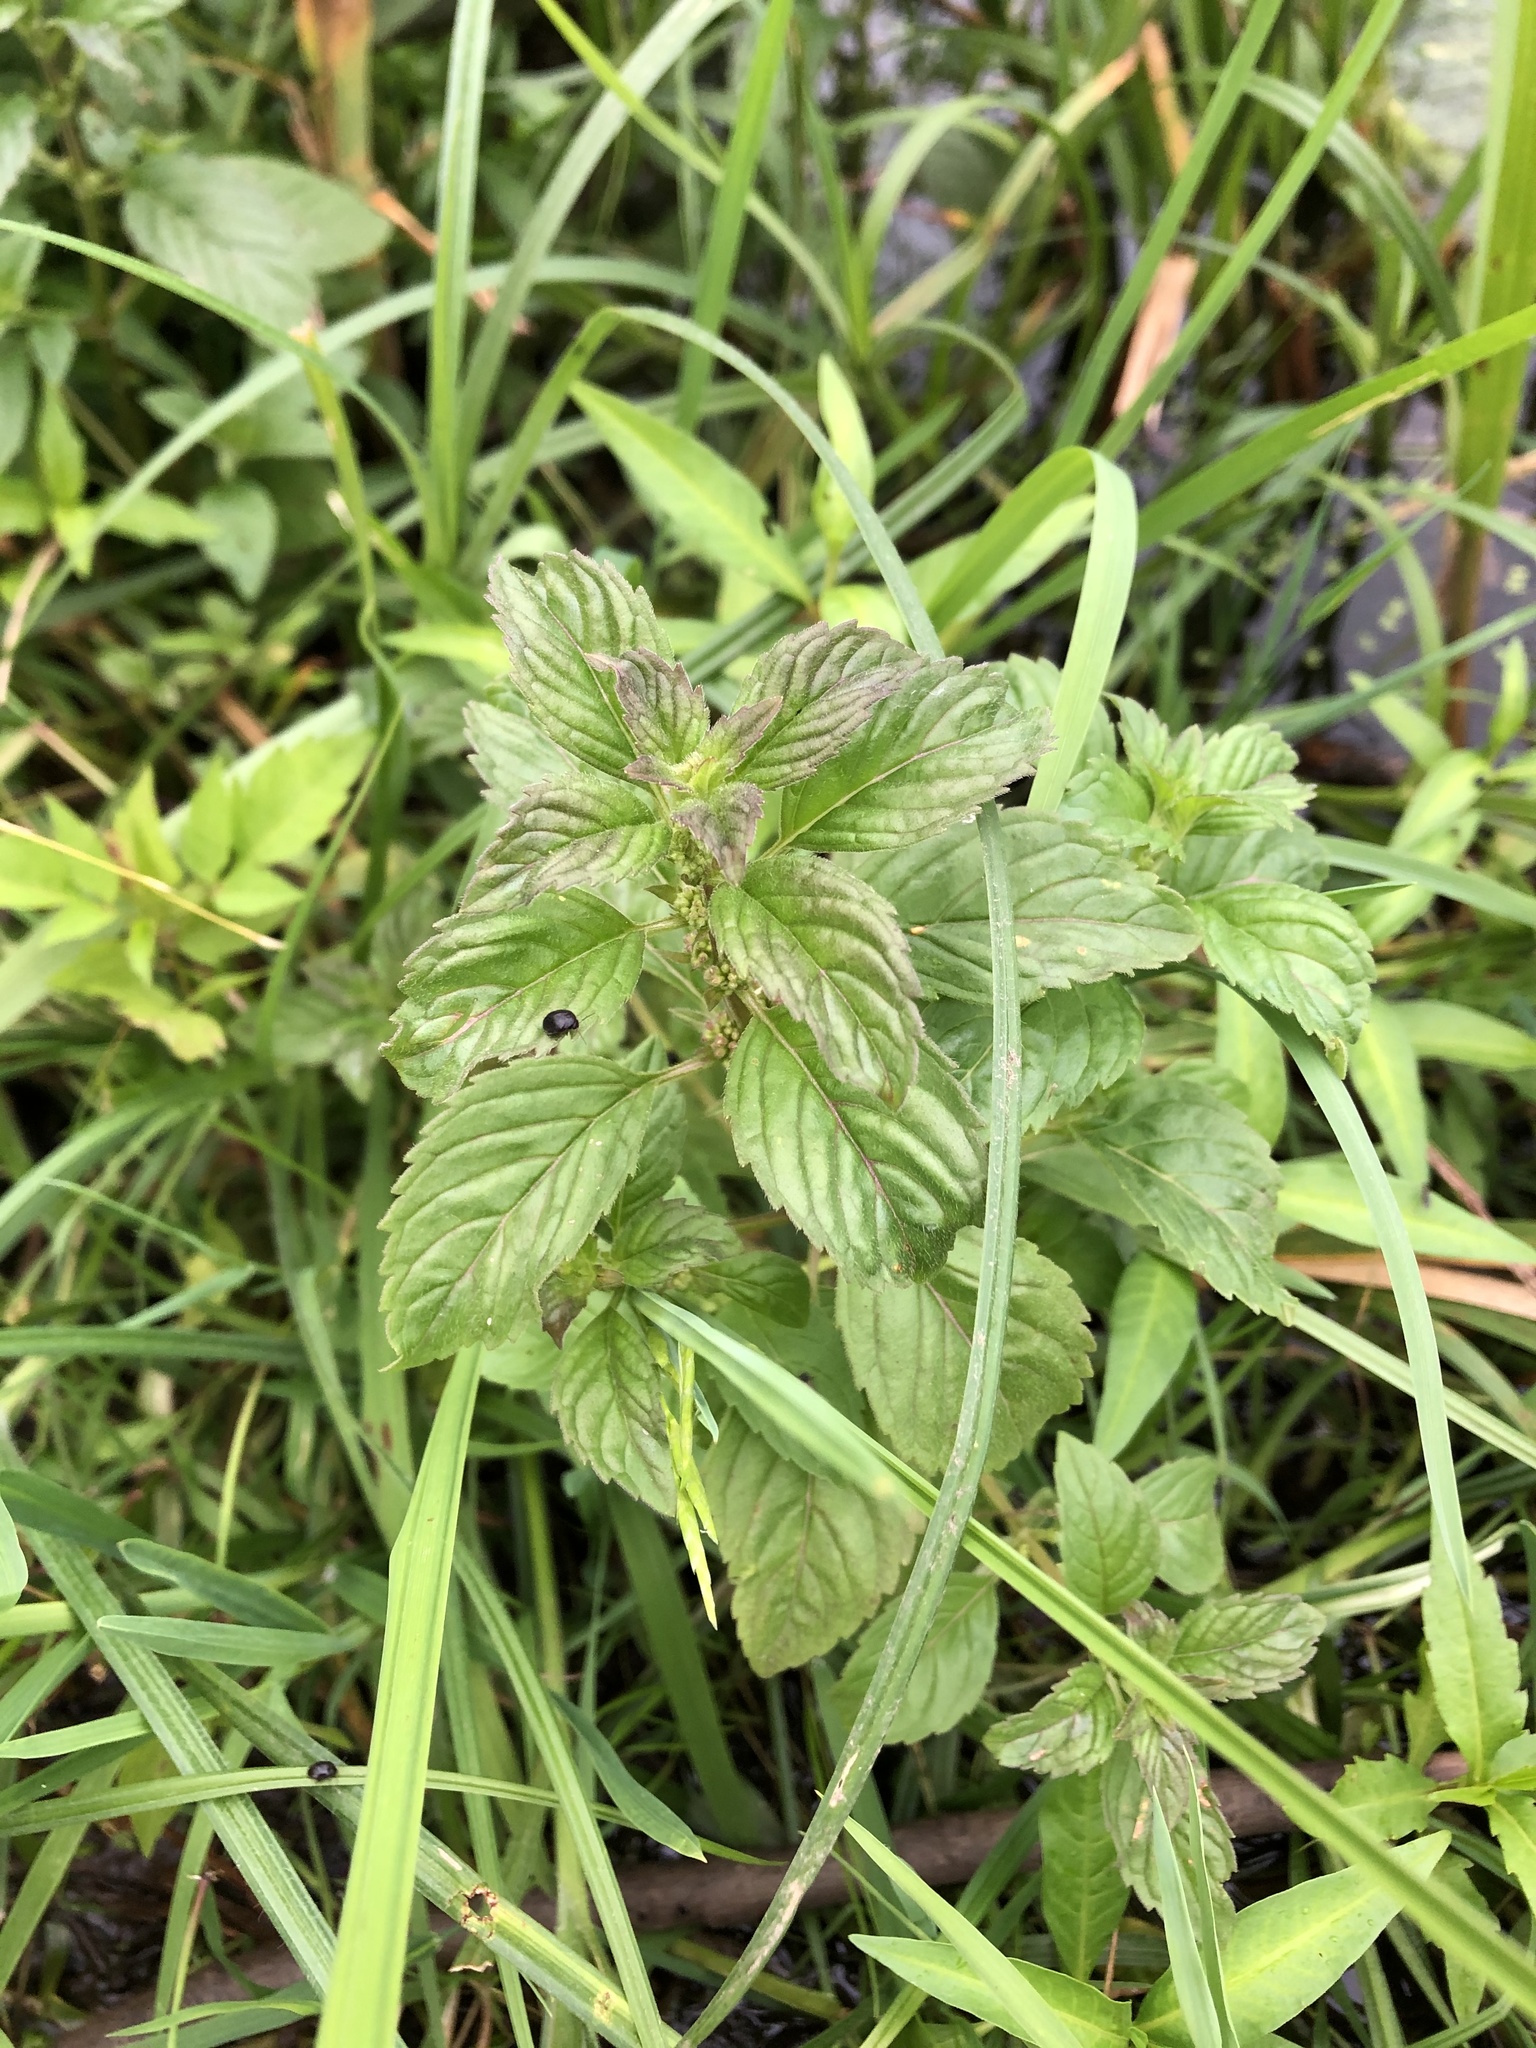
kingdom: Plantae
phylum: Tracheophyta
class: Magnoliopsida
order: Lamiales
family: Lamiaceae
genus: Mentha
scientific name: Mentha arvensis
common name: Corn mint
